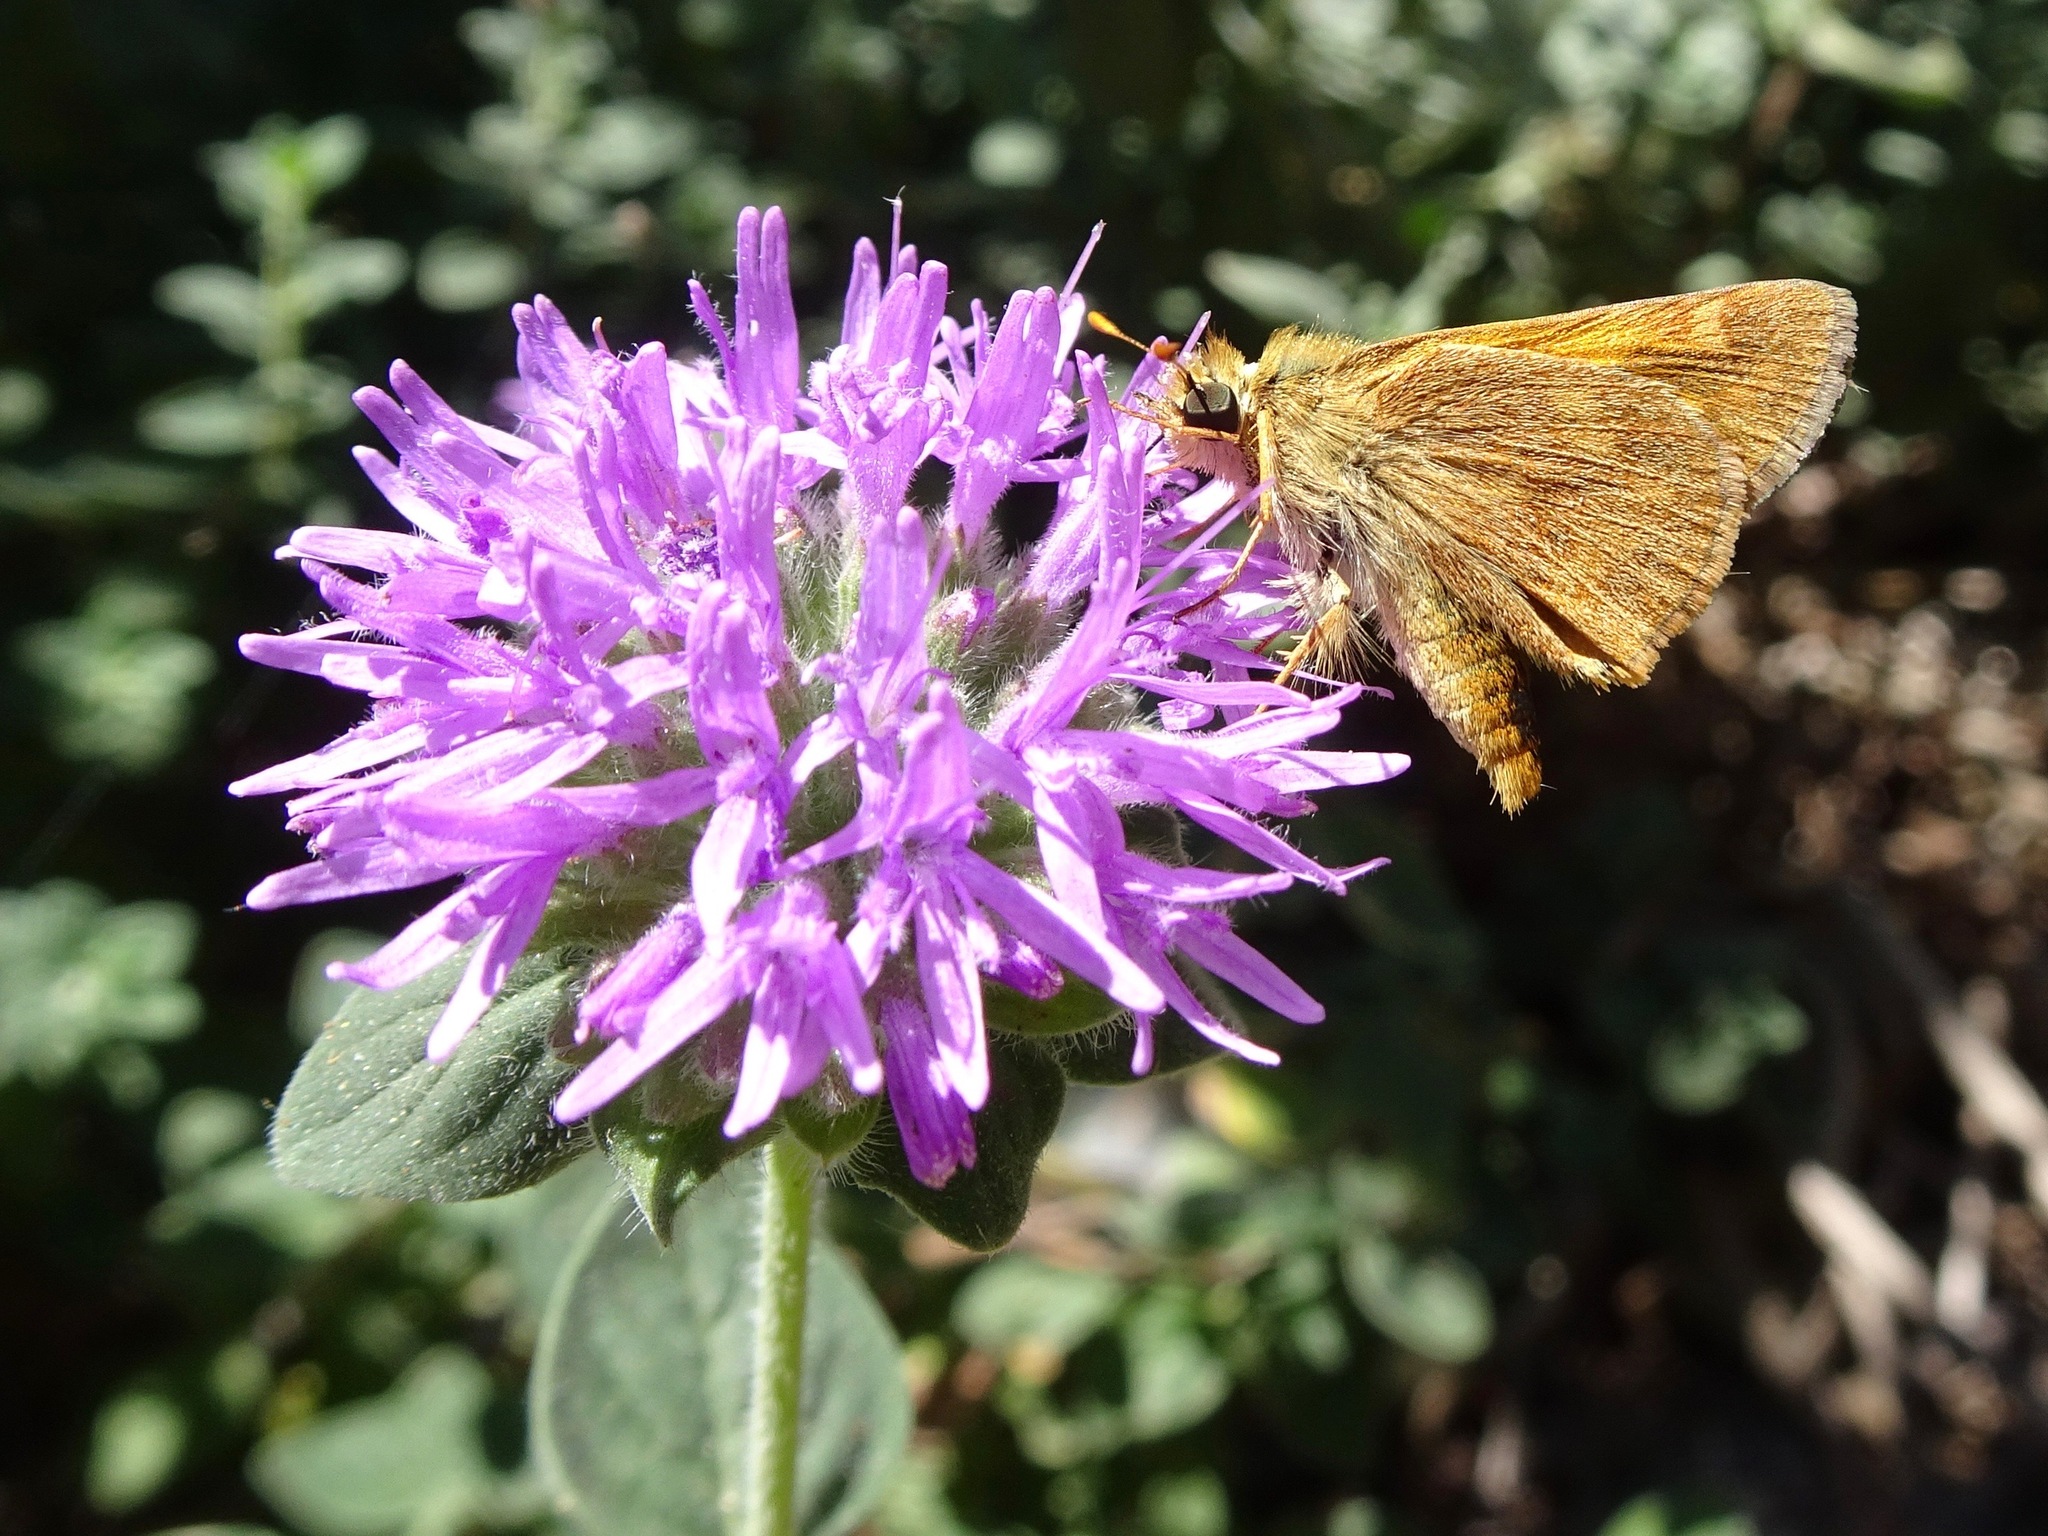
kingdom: Animalia
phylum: Arthropoda
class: Insecta
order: Lepidoptera
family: Hesperiidae
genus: Ochlodes
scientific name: Ochlodes sylvanoides
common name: Woodland skipper
